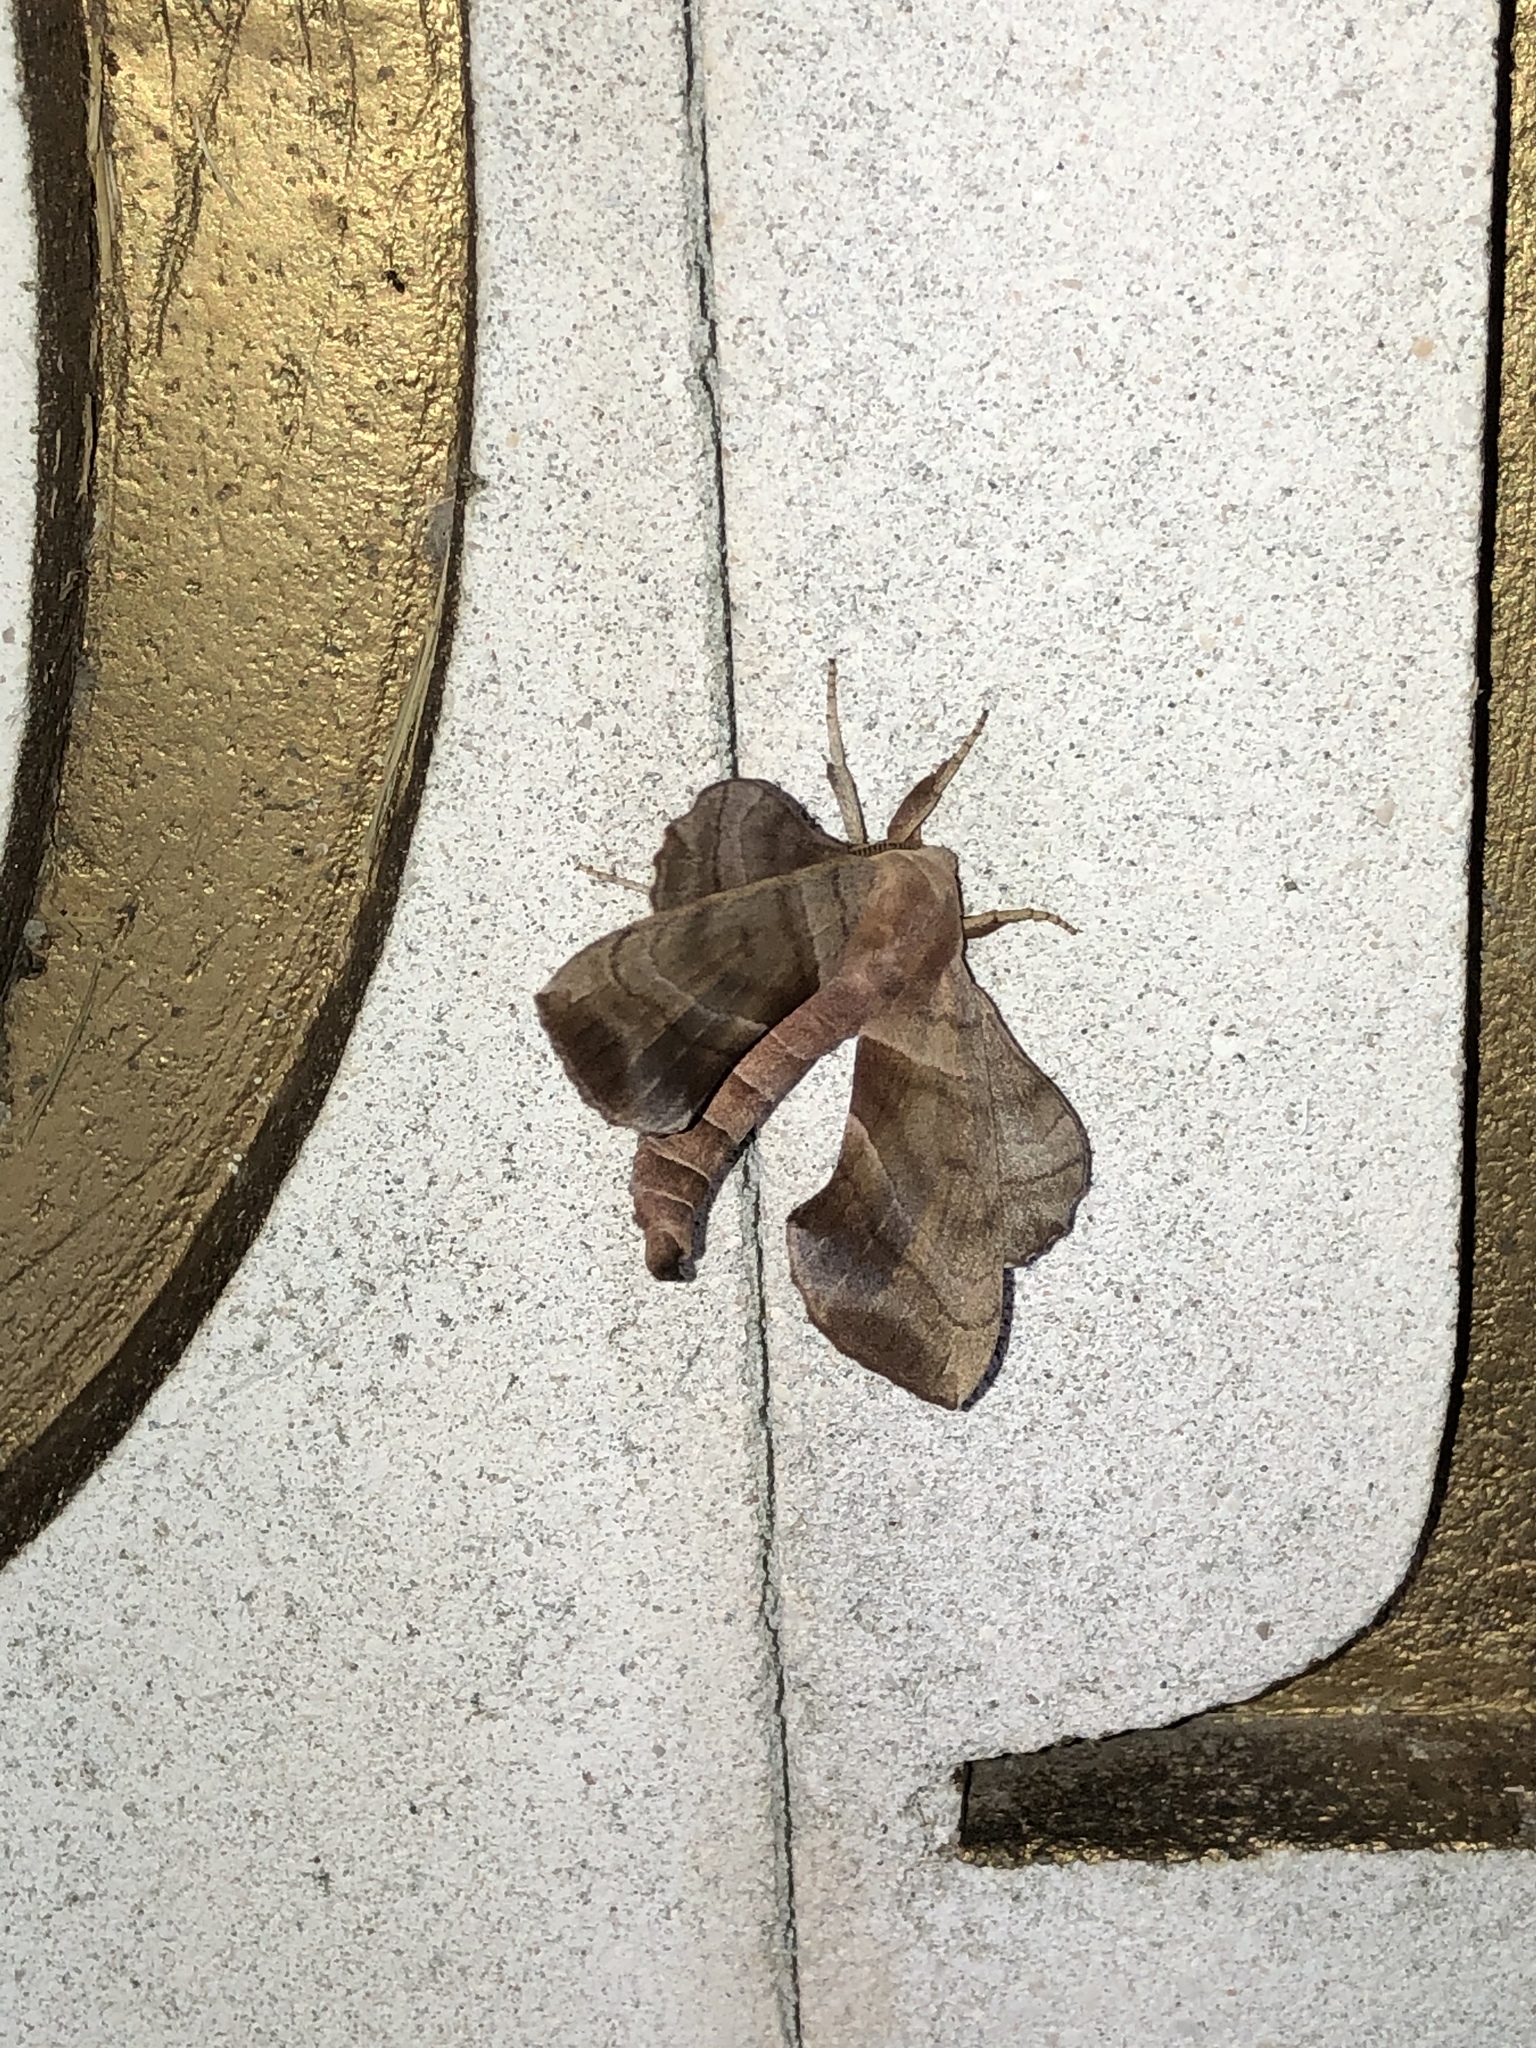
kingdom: Animalia
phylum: Arthropoda
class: Insecta
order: Lepidoptera
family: Sphingidae
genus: Amorpha
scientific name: Amorpha juglandis
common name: Walnut sphinx
